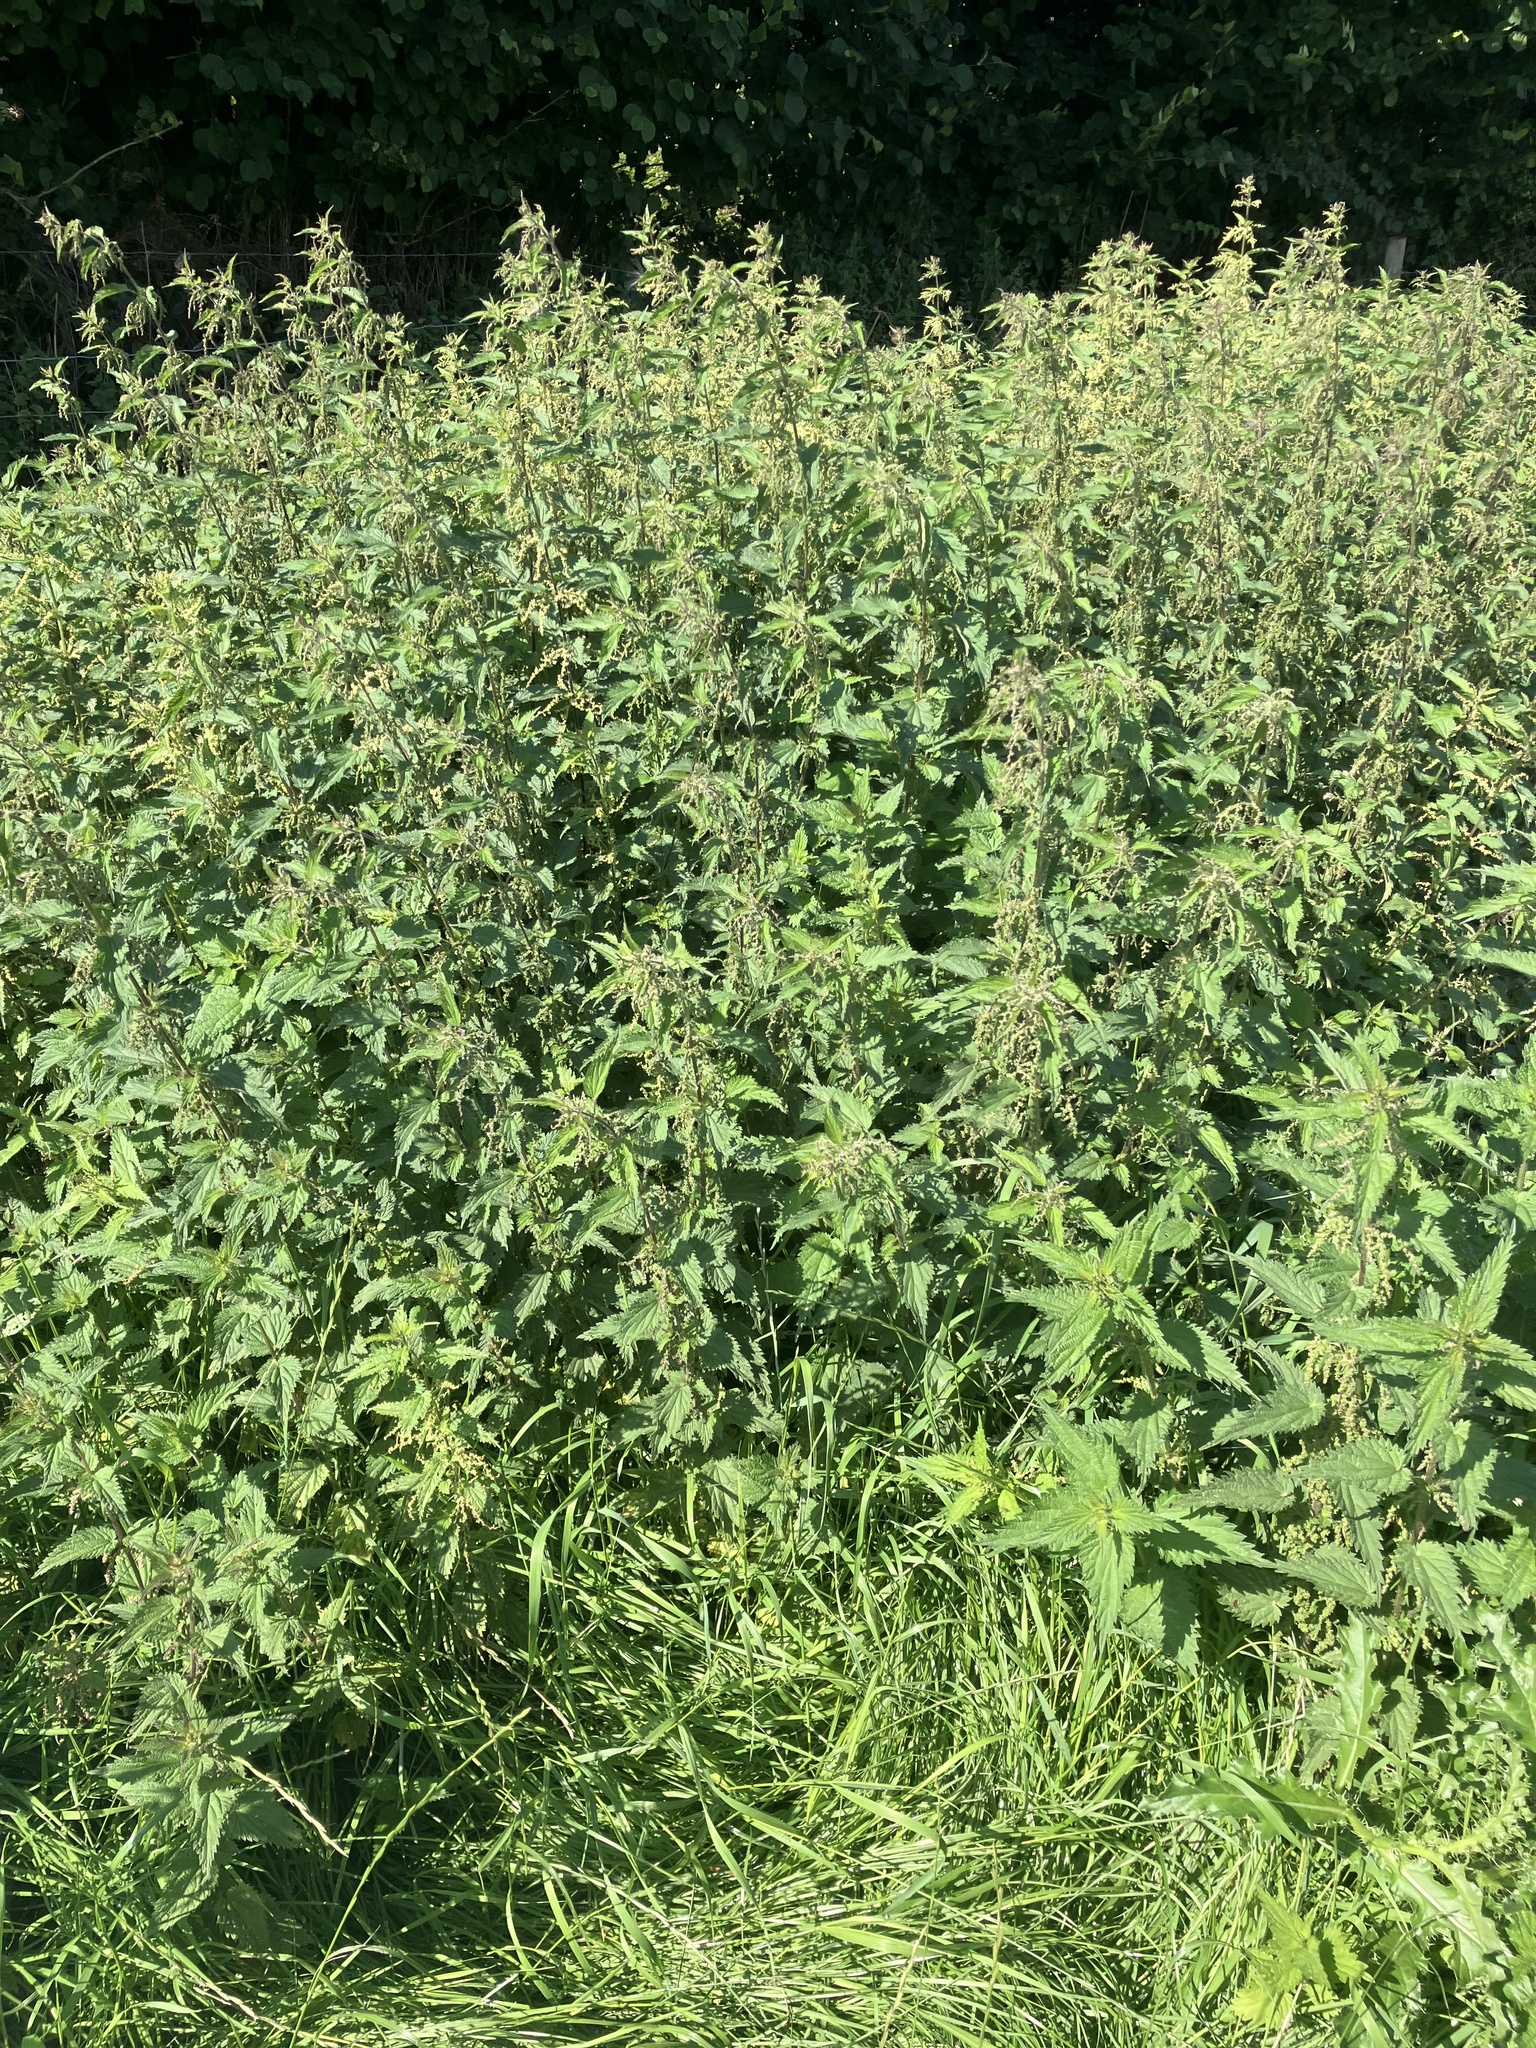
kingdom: Plantae
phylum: Tracheophyta
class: Magnoliopsida
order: Rosales
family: Urticaceae
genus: Urtica
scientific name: Urtica dioica
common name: Common nettle
